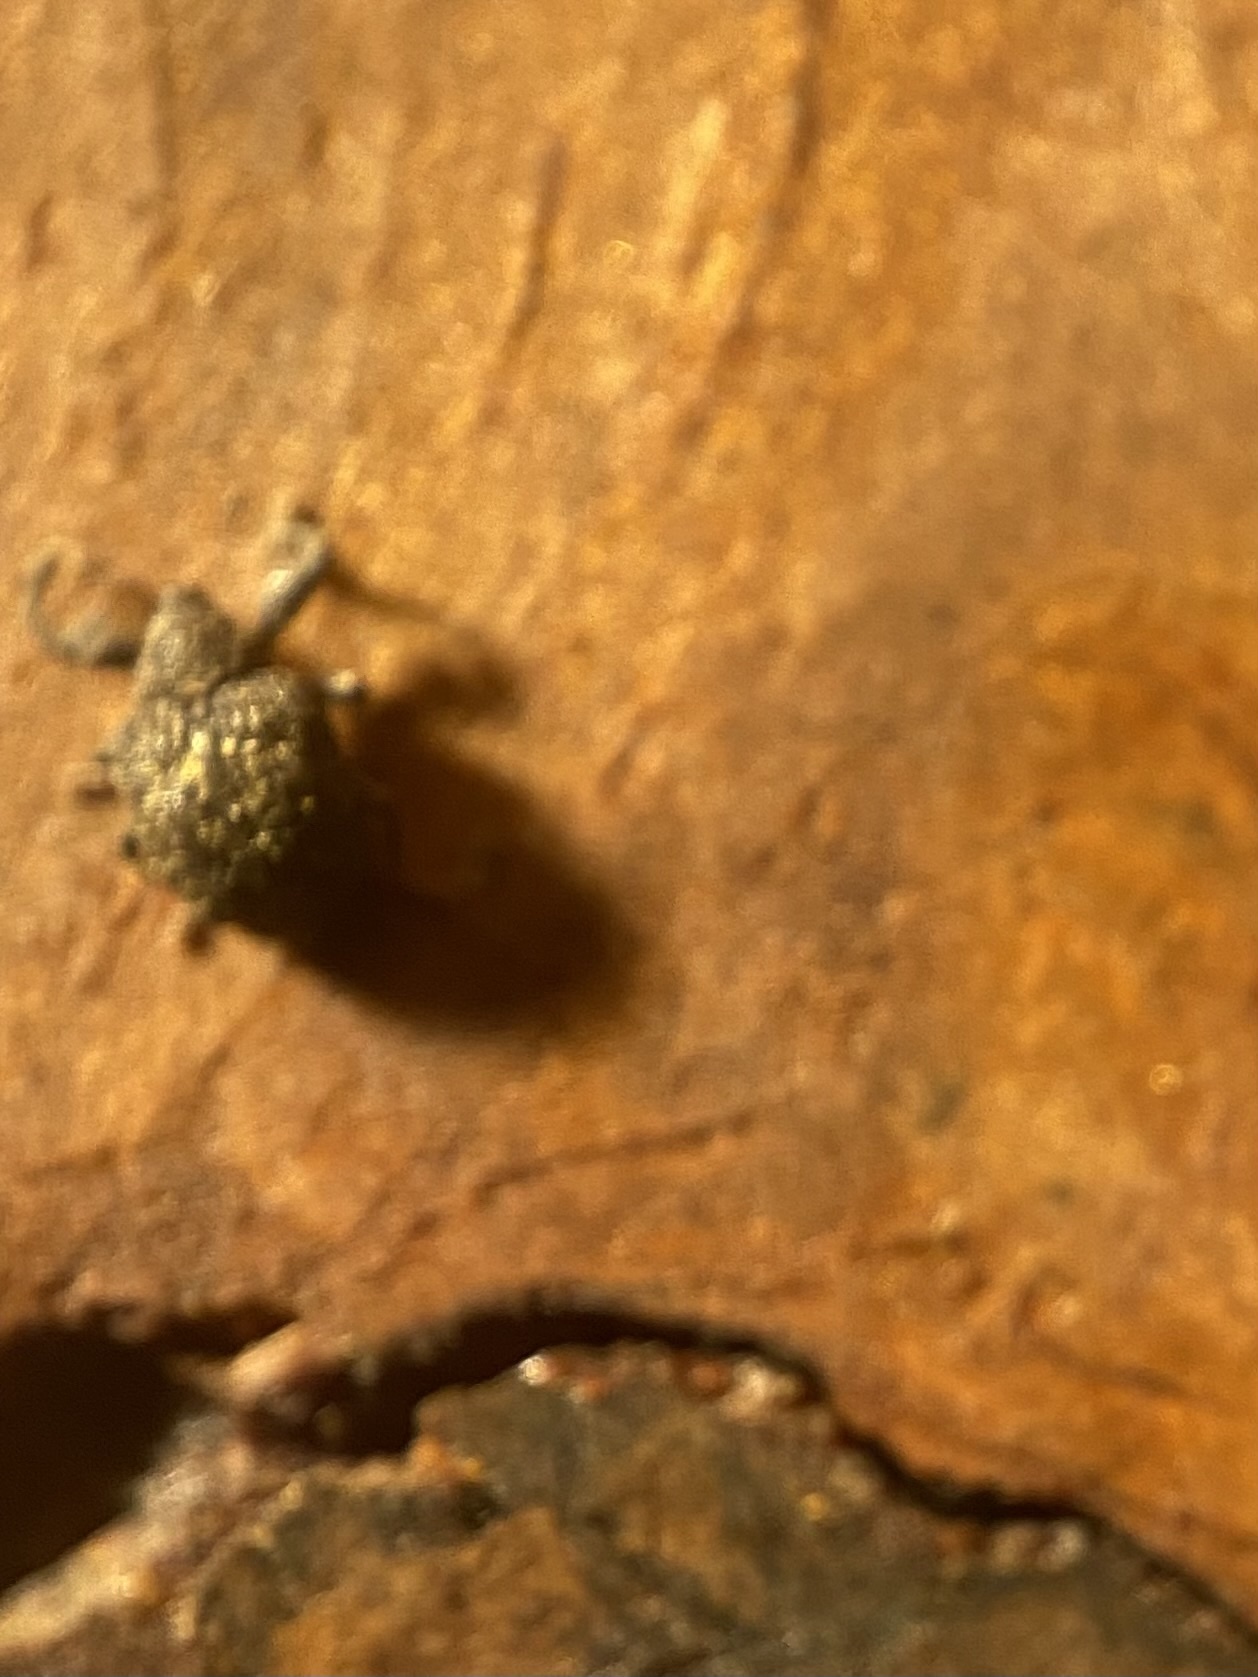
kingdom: Animalia
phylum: Arthropoda
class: Insecta
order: Coleoptera
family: Curculionidae
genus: Odontopus
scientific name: Odontopus calceatus
